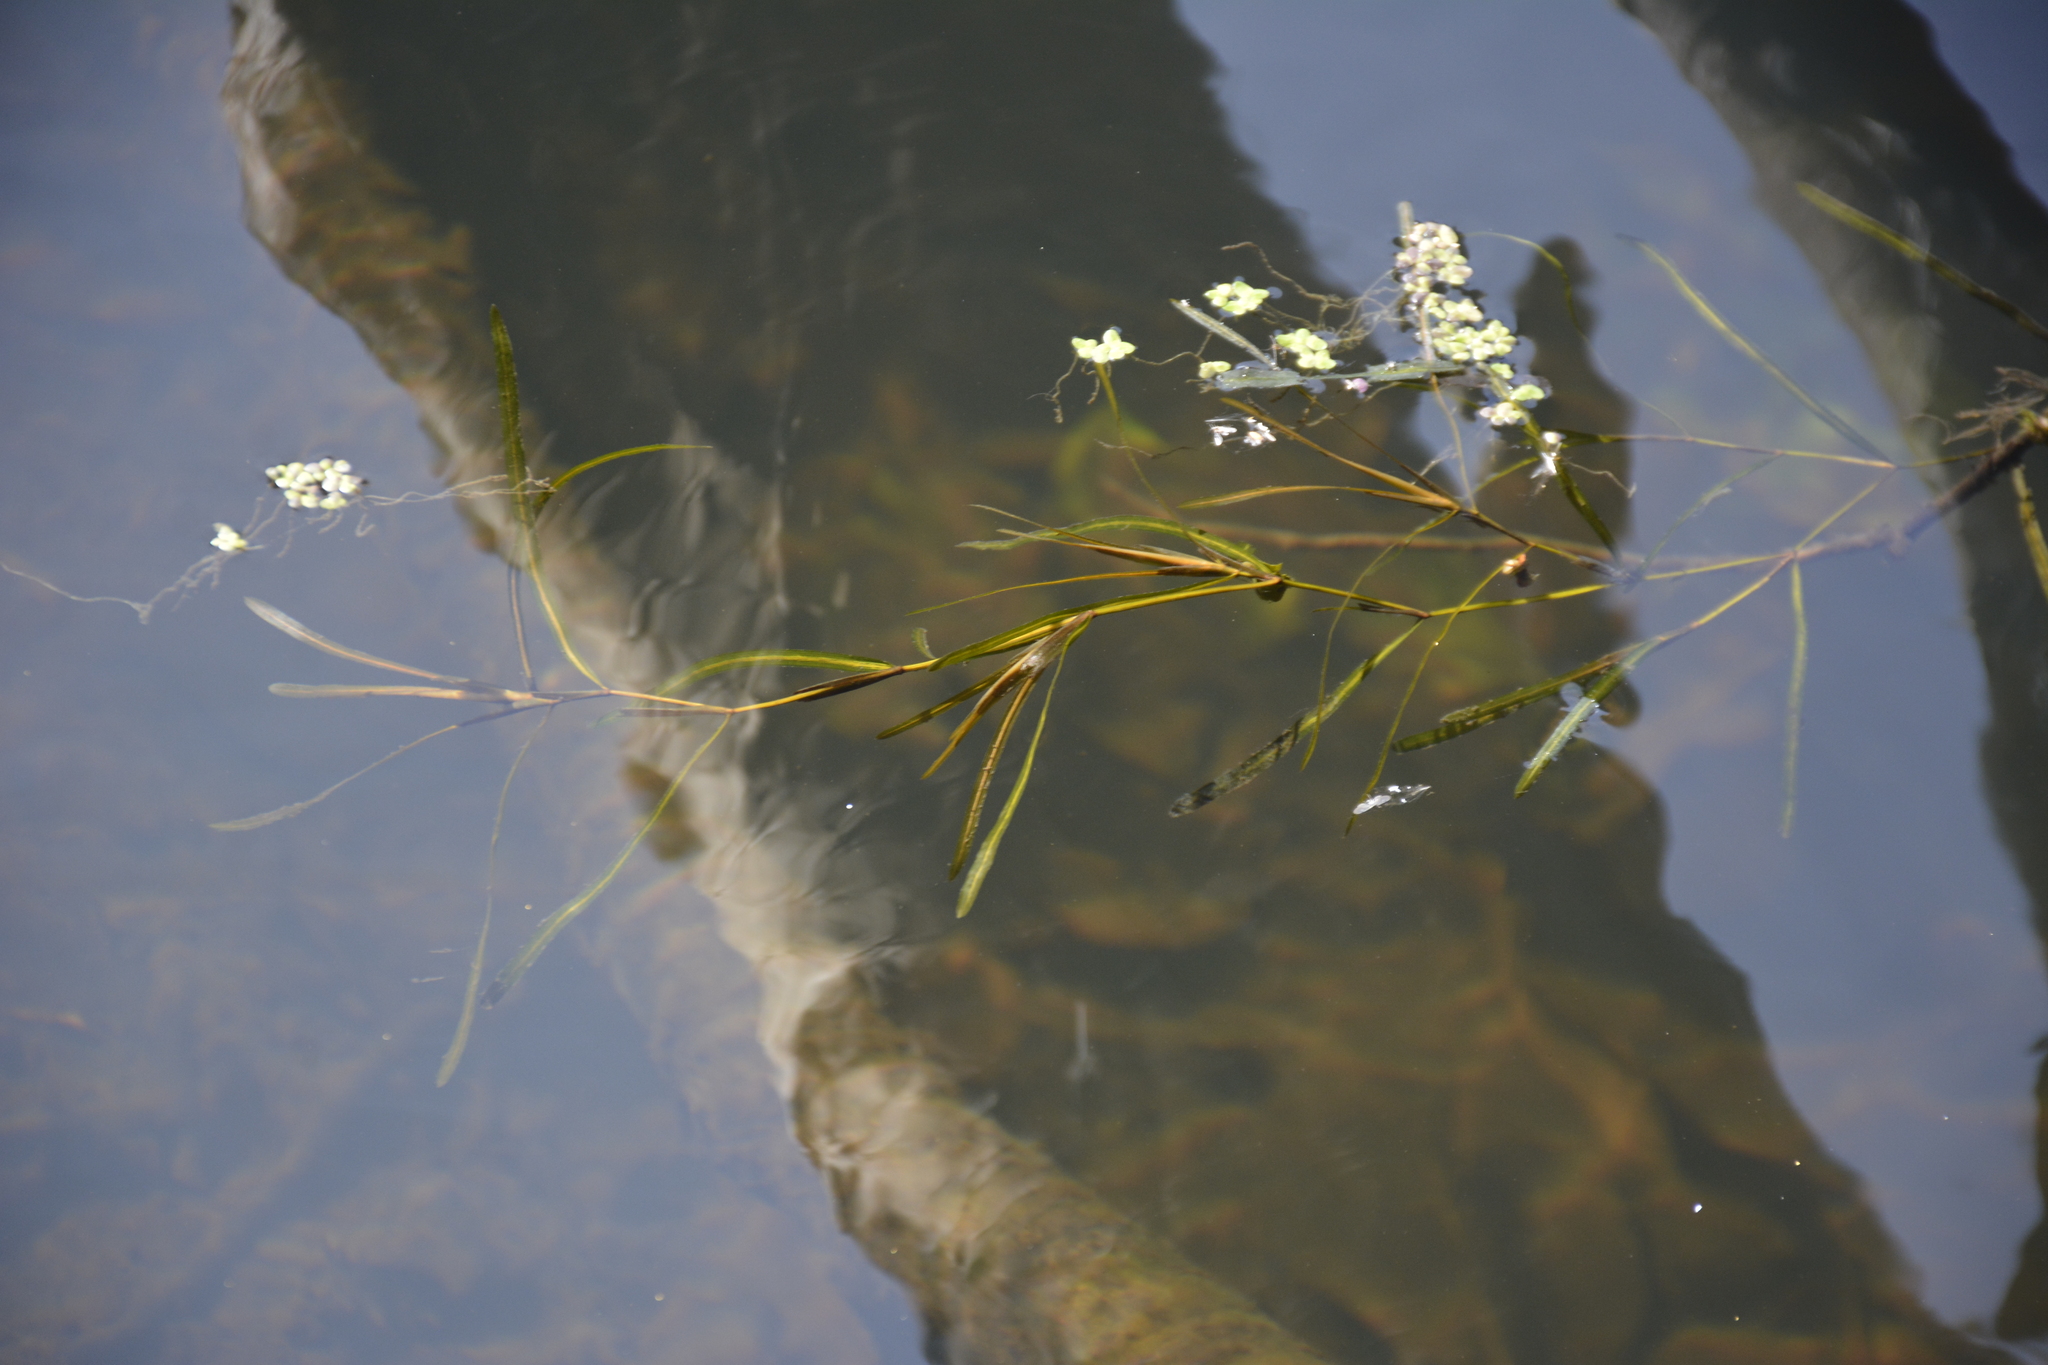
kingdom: Plantae
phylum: Tracheophyta
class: Liliopsida
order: Alismatales
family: Potamogetonaceae
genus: Potamogeton
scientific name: Potamogeton friesii
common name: Flat-stalked pondweed
